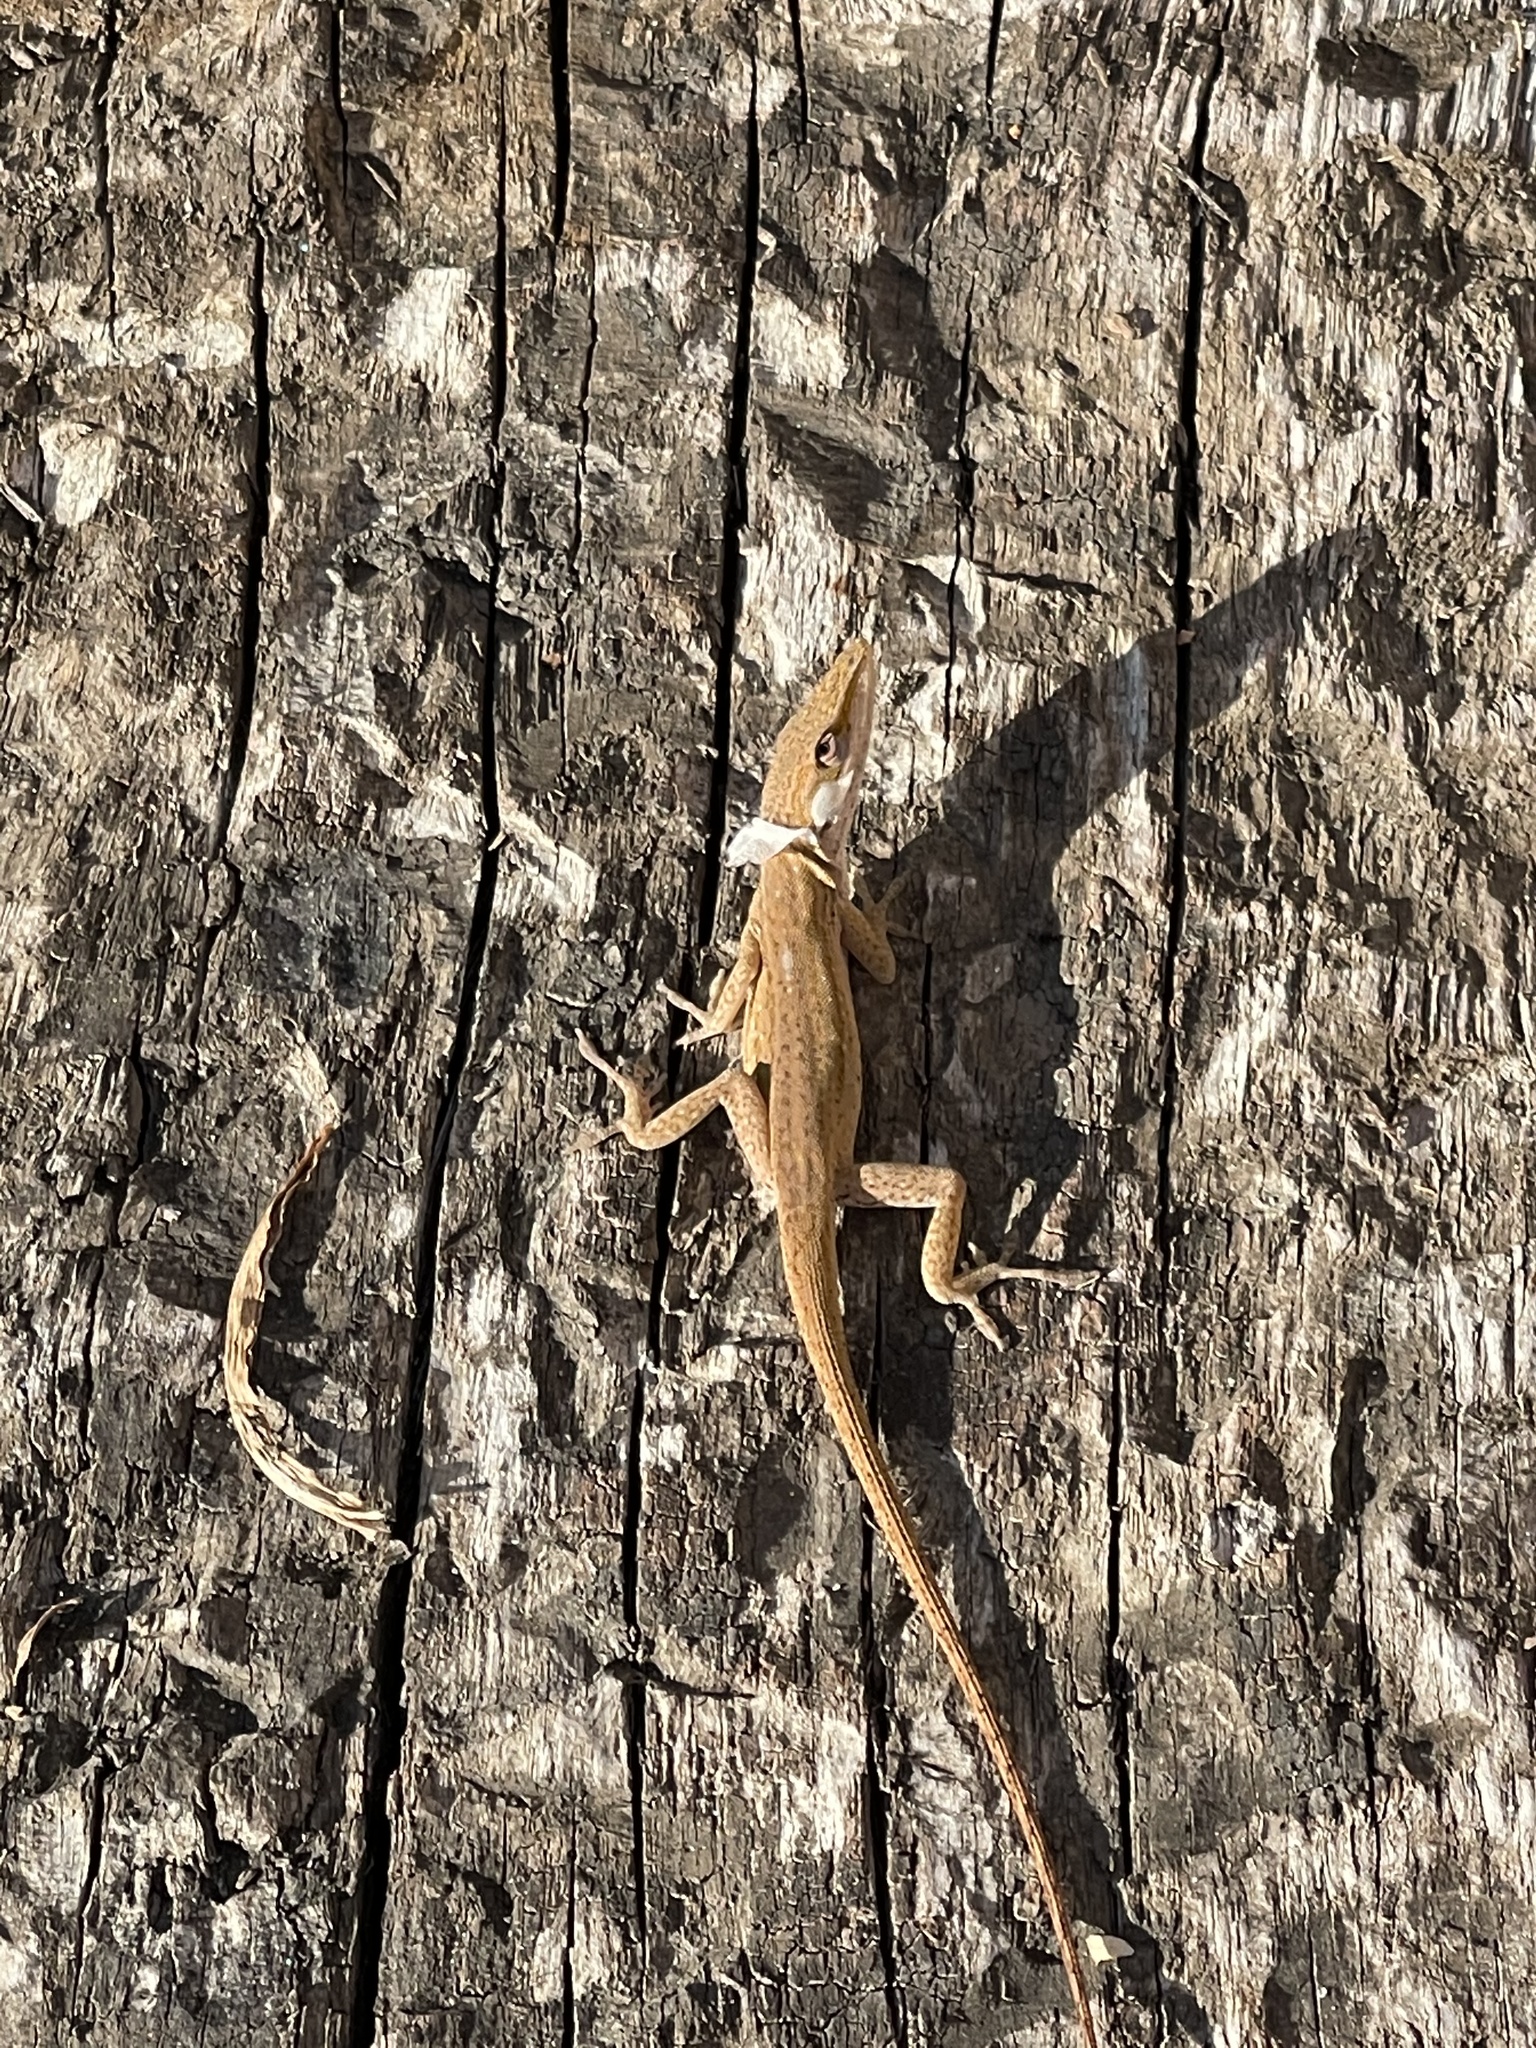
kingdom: Animalia
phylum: Chordata
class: Squamata
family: Dactyloidae
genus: Anolis
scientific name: Anolis carolinensis
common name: Green anole
